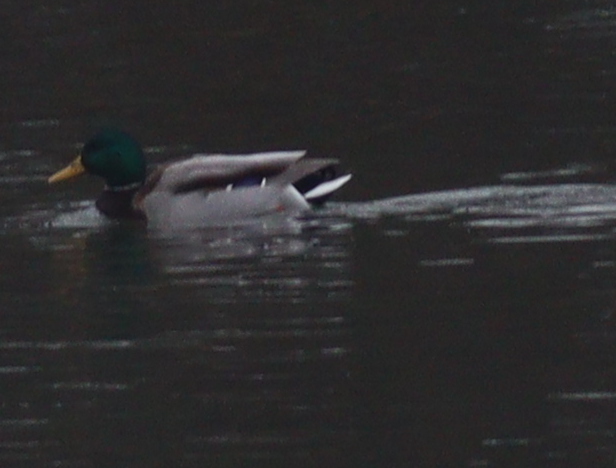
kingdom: Animalia
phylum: Chordata
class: Aves
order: Anseriformes
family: Anatidae
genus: Anas
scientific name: Anas platyrhynchos
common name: Mallard
